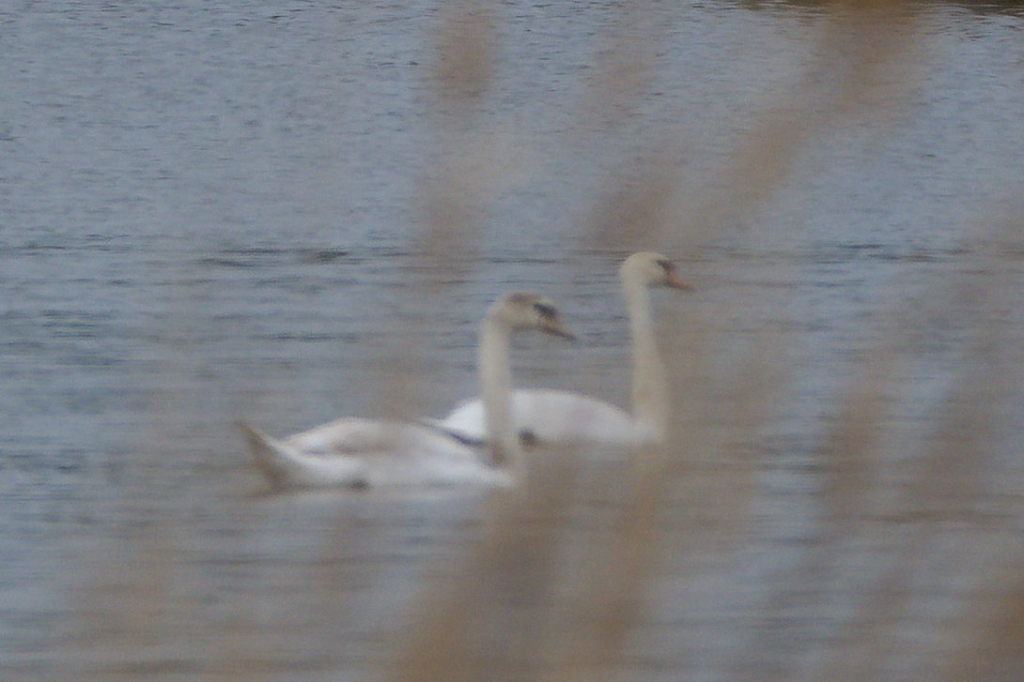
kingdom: Animalia
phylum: Chordata
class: Aves
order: Anseriformes
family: Anatidae
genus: Cygnus
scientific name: Cygnus olor
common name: Mute swan
